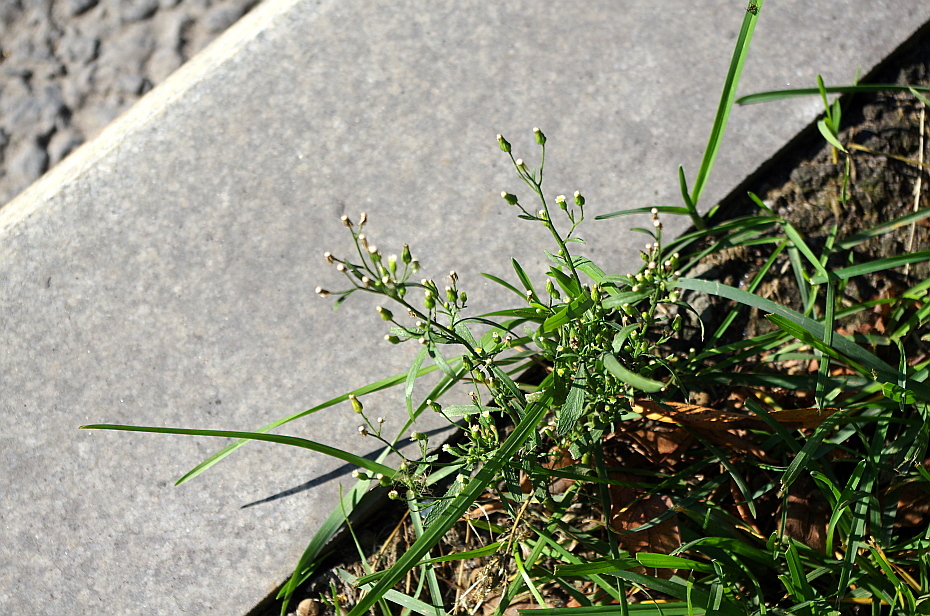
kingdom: Plantae
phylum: Tracheophyta
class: Magnoliopsida
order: Asterales
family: Asteraceae
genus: Erigeron
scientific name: Erigeron canadensis
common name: Canadian fleabane
